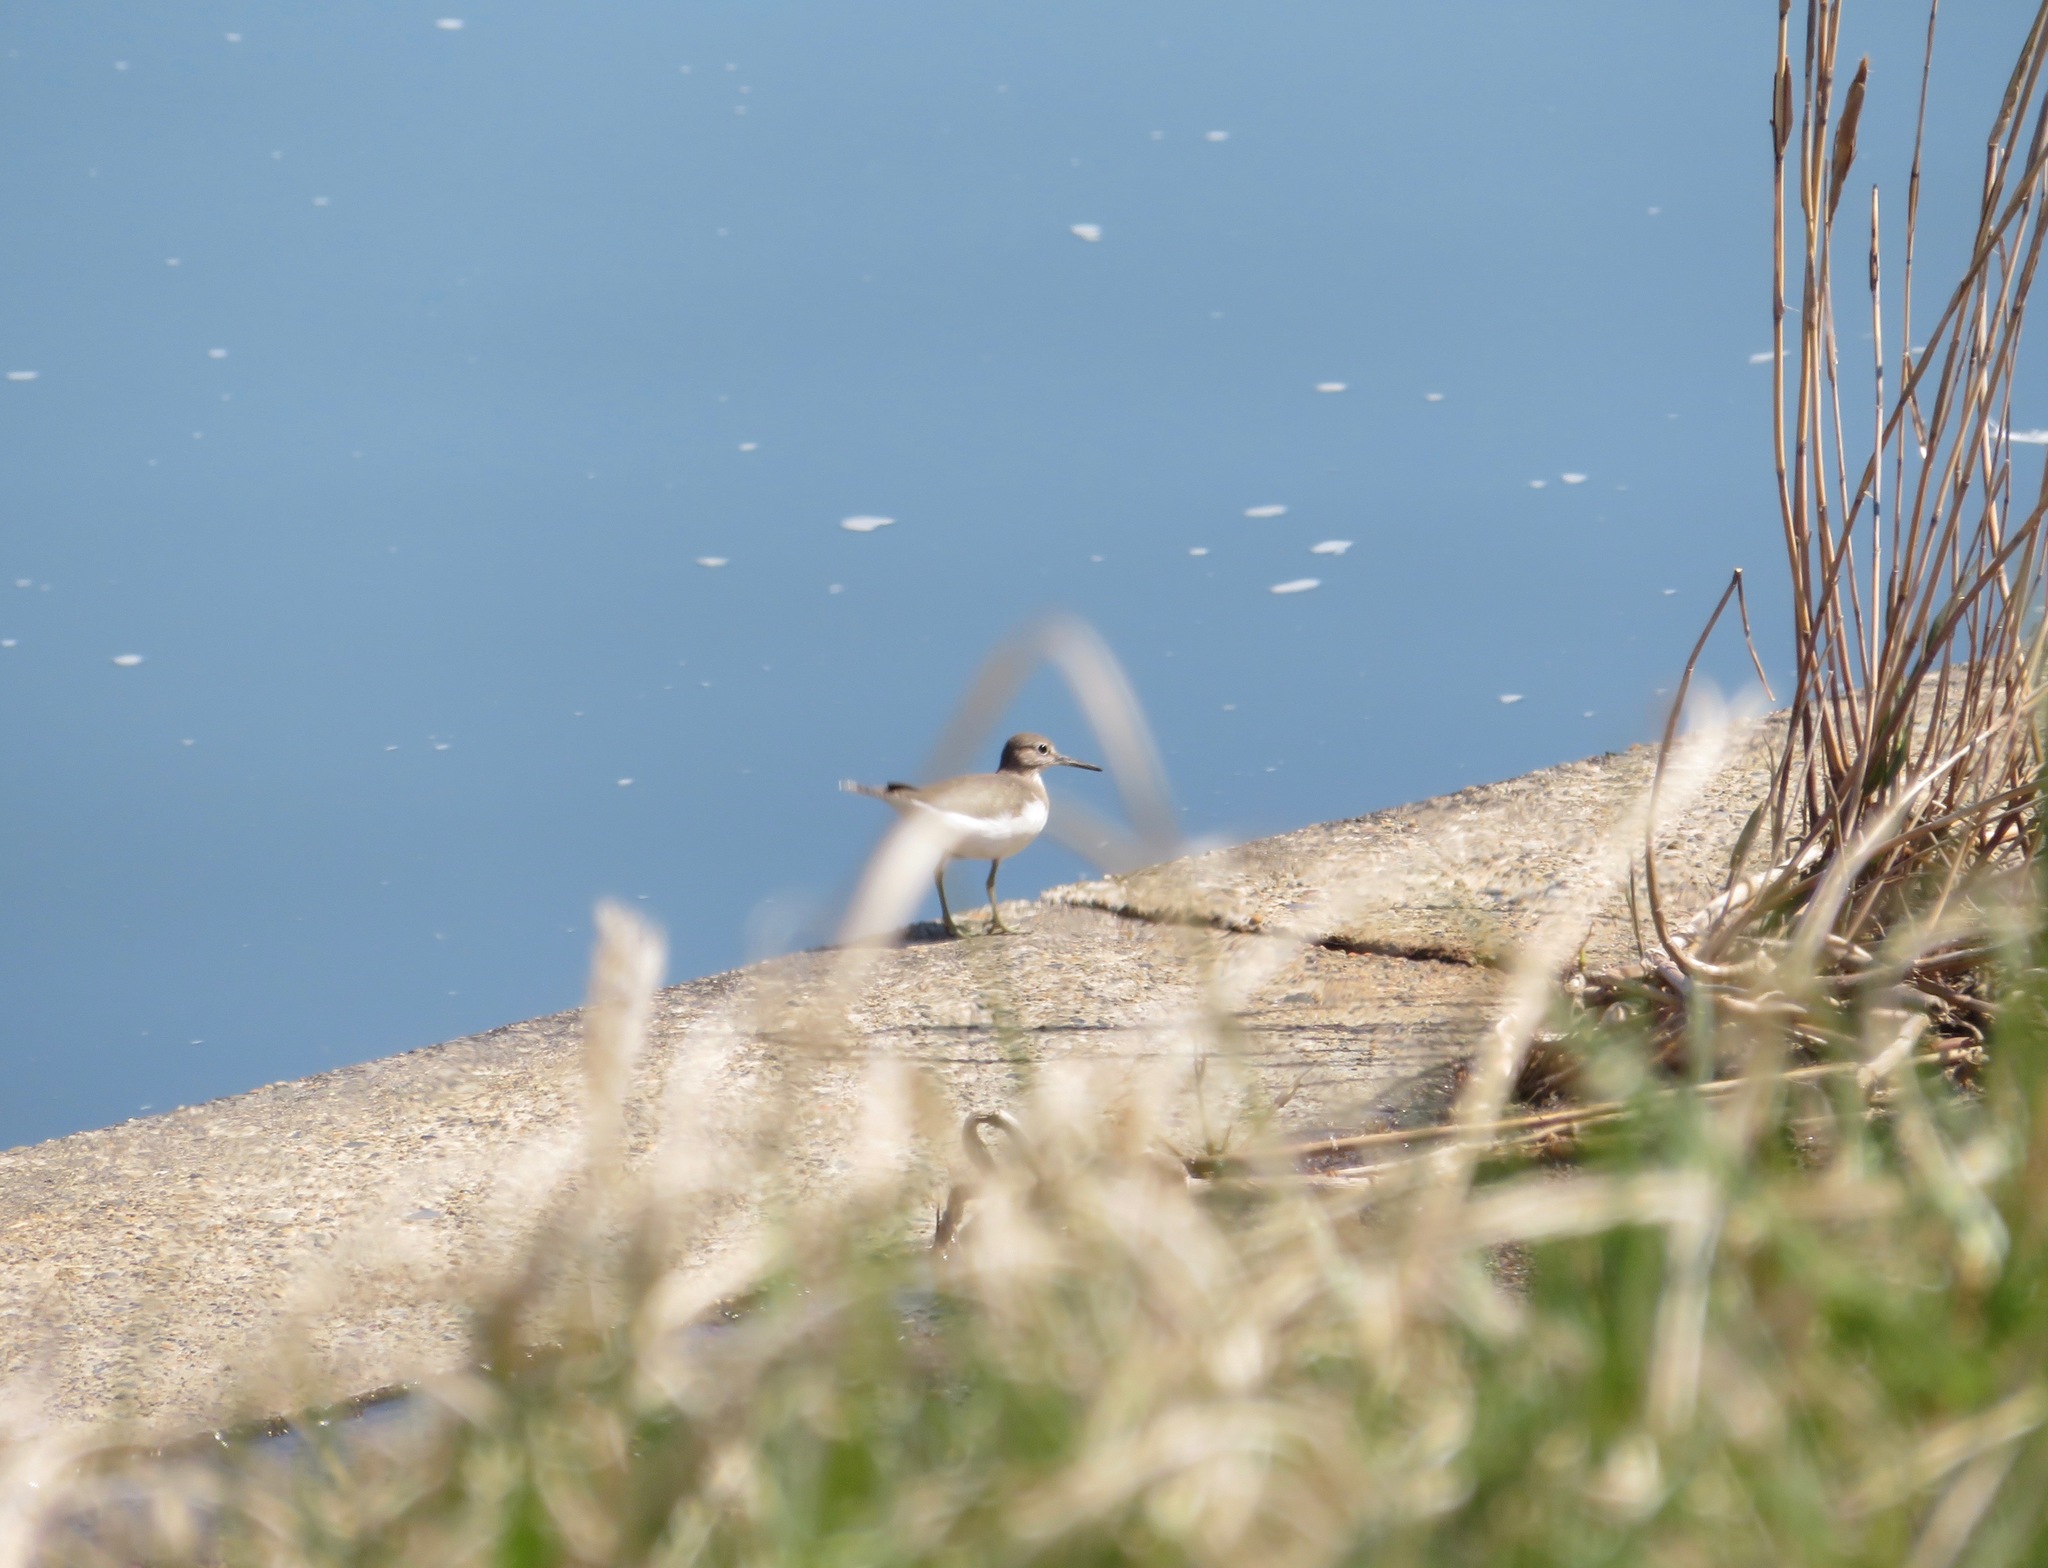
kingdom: Animalia
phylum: Chordata
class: Aves
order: Charadriiformes
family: Scolopacidae
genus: Actitis
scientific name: Actitis hypoleucos
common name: Common sandpiper
